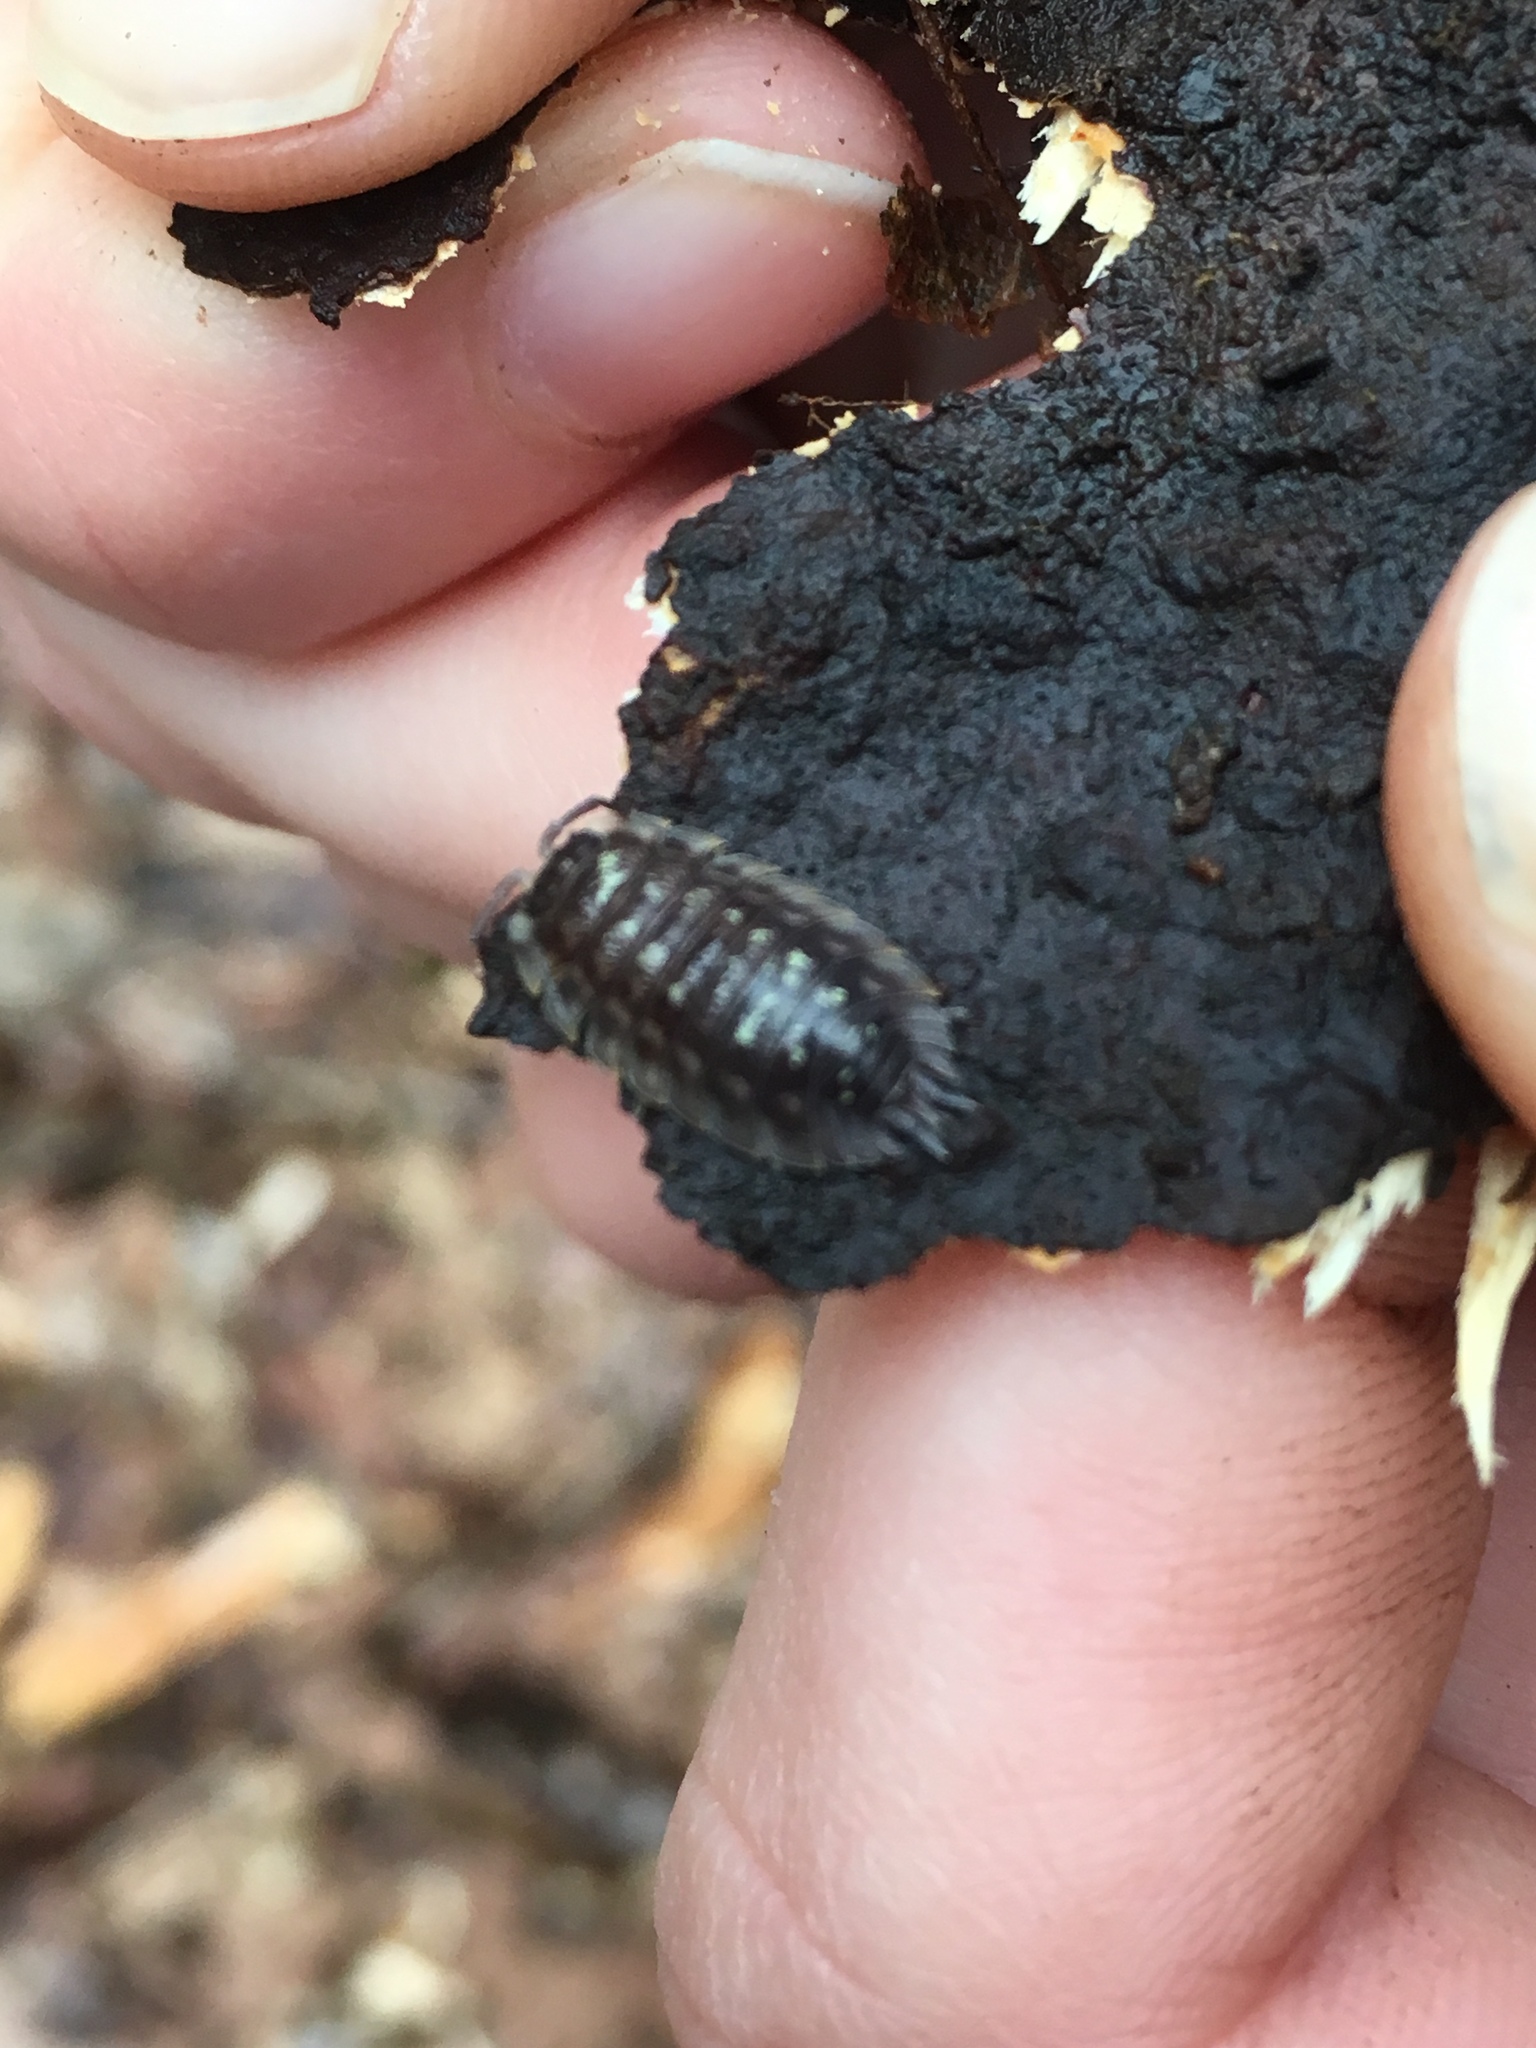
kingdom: Animalia
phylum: Arthropoda
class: Malacostraca
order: Isopoda
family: Oniscidae
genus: Oniscus
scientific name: Oniscus asellus
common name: Common shiny woodlouse
